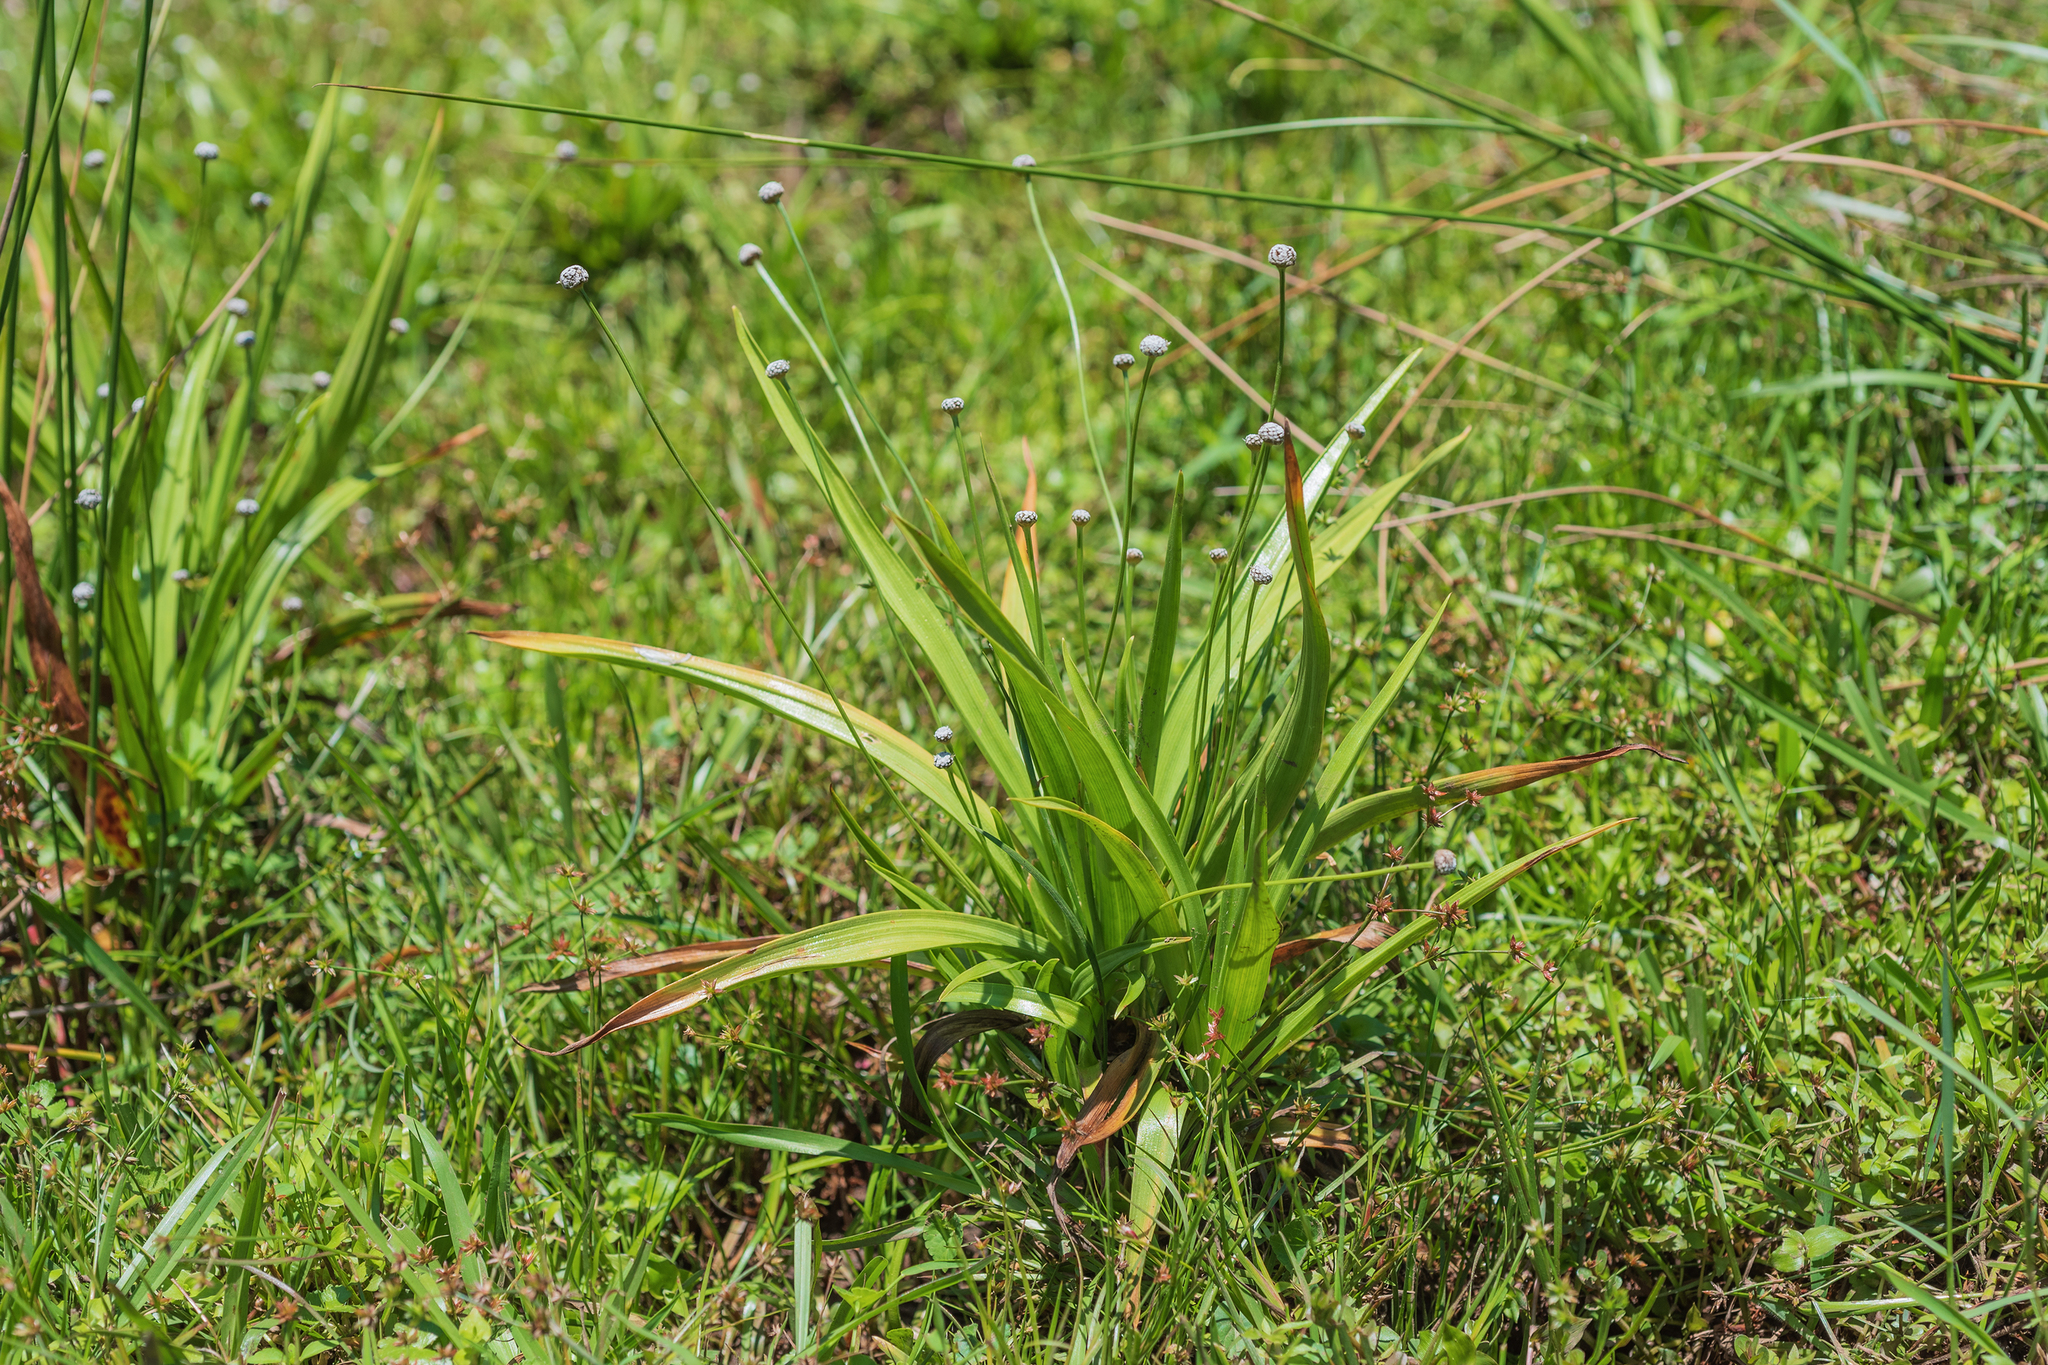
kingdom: Plantae
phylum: Tracheophyta
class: Liliopsida
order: Poales
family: Eriocaulaceae
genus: Eriocaulon
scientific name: Eriocaulon sexangulare
